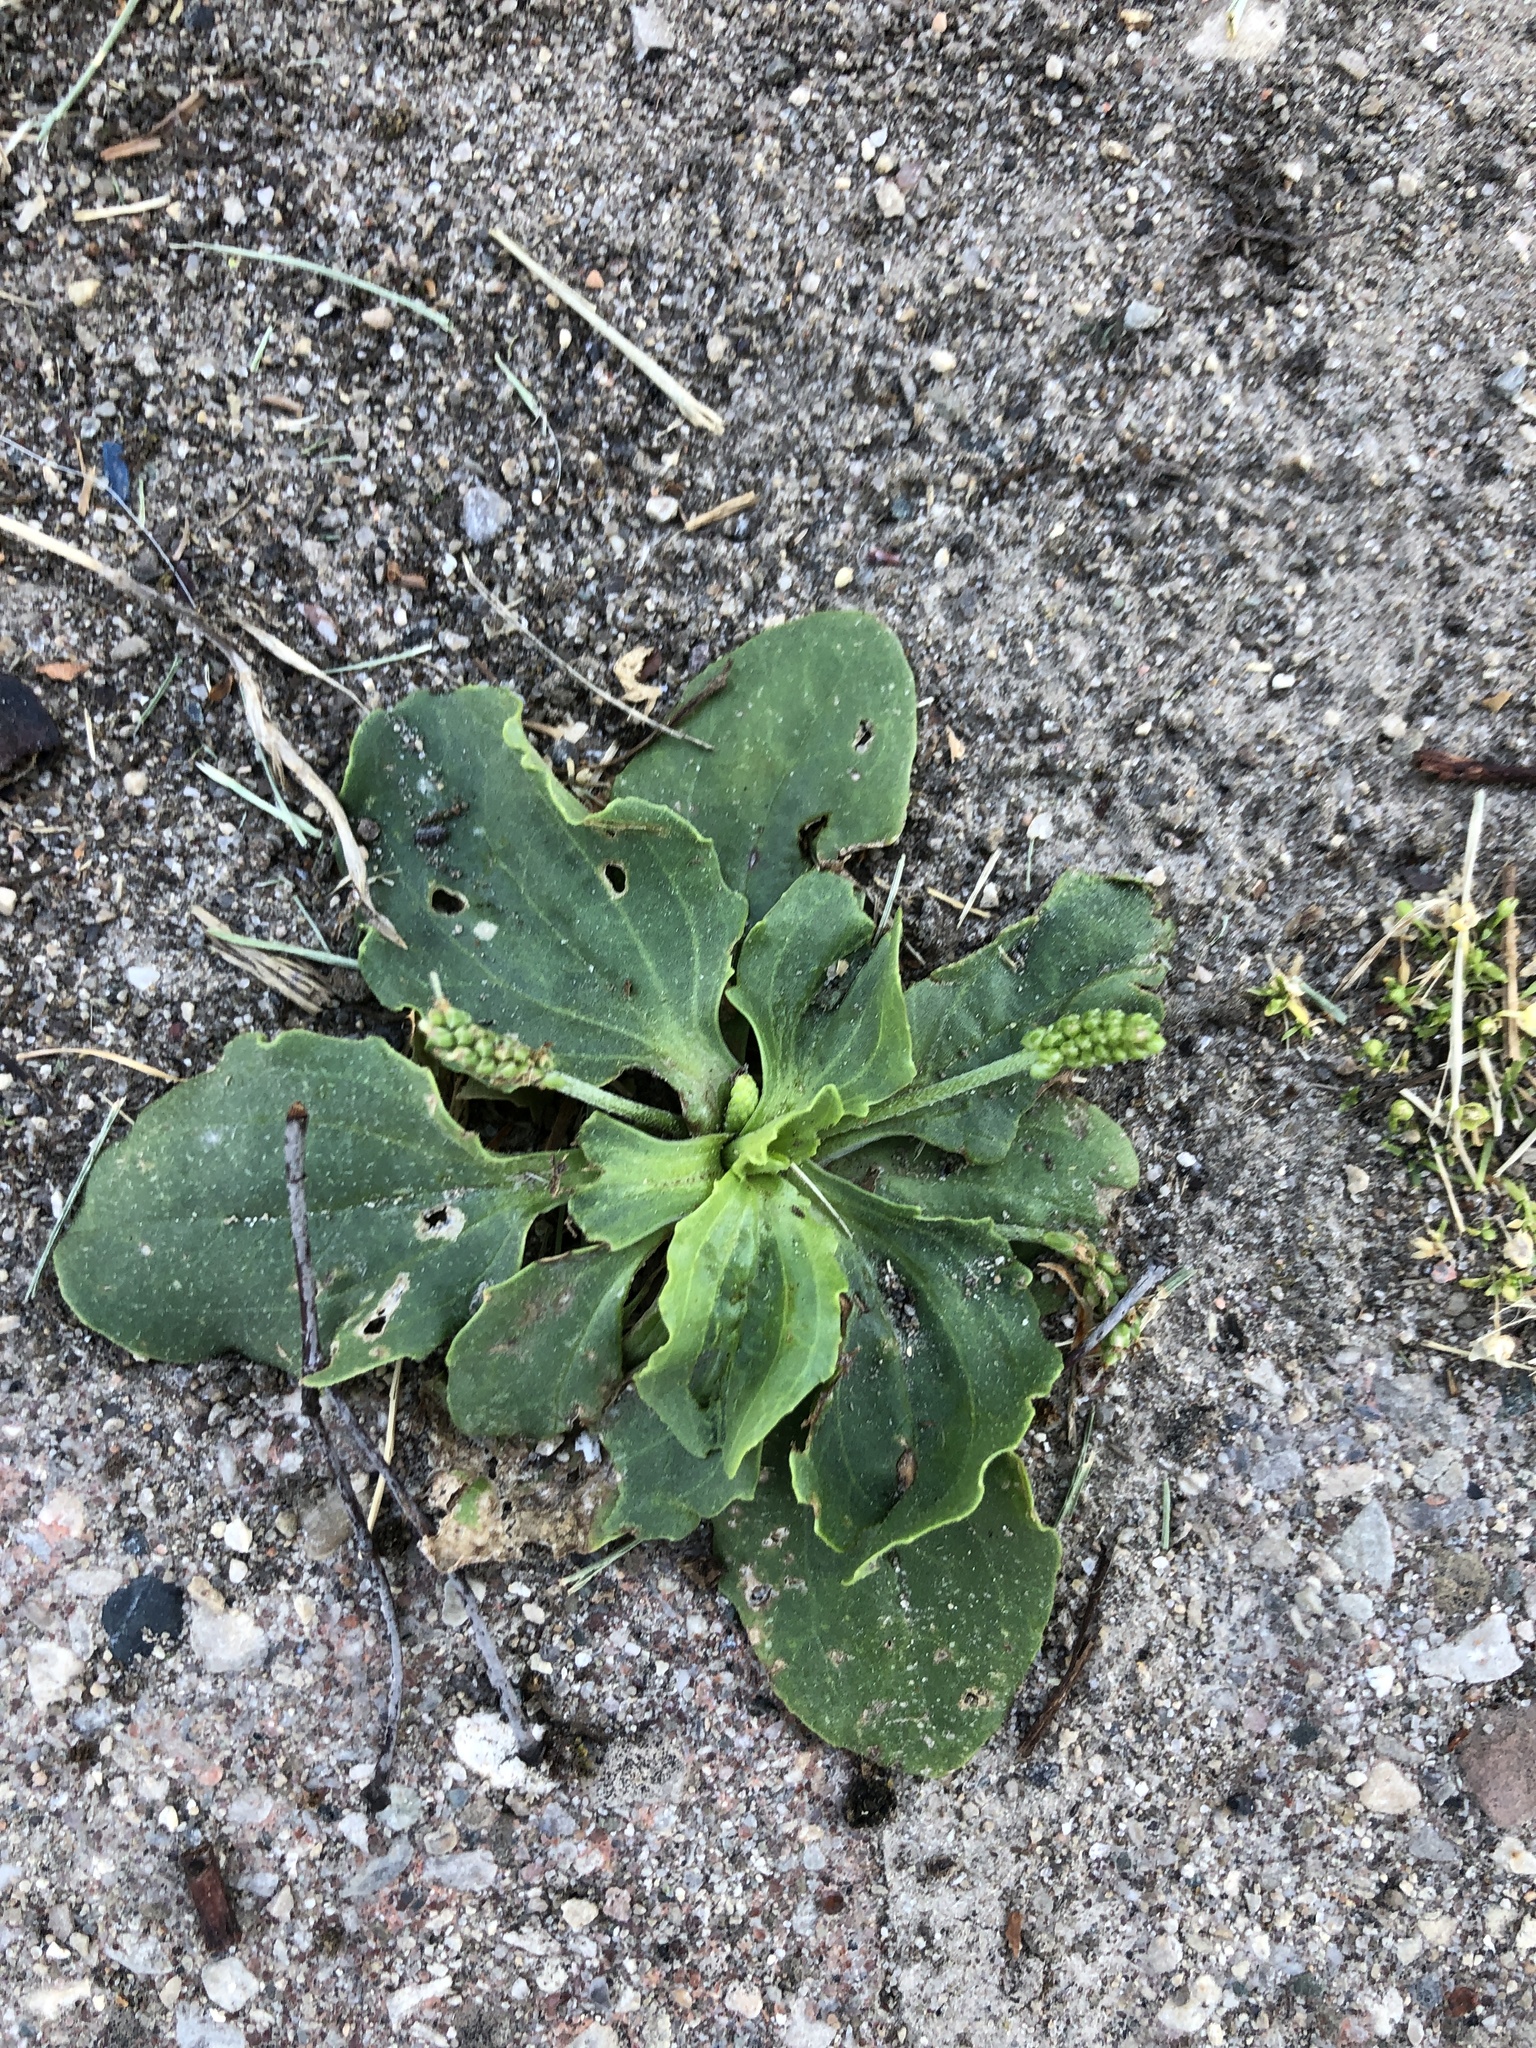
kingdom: Plantae
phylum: Tracheophyta
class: Magnoliopsida
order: Lamiales
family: Plantaginaceae
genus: Plantago
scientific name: Plantago major
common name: Common plantain
